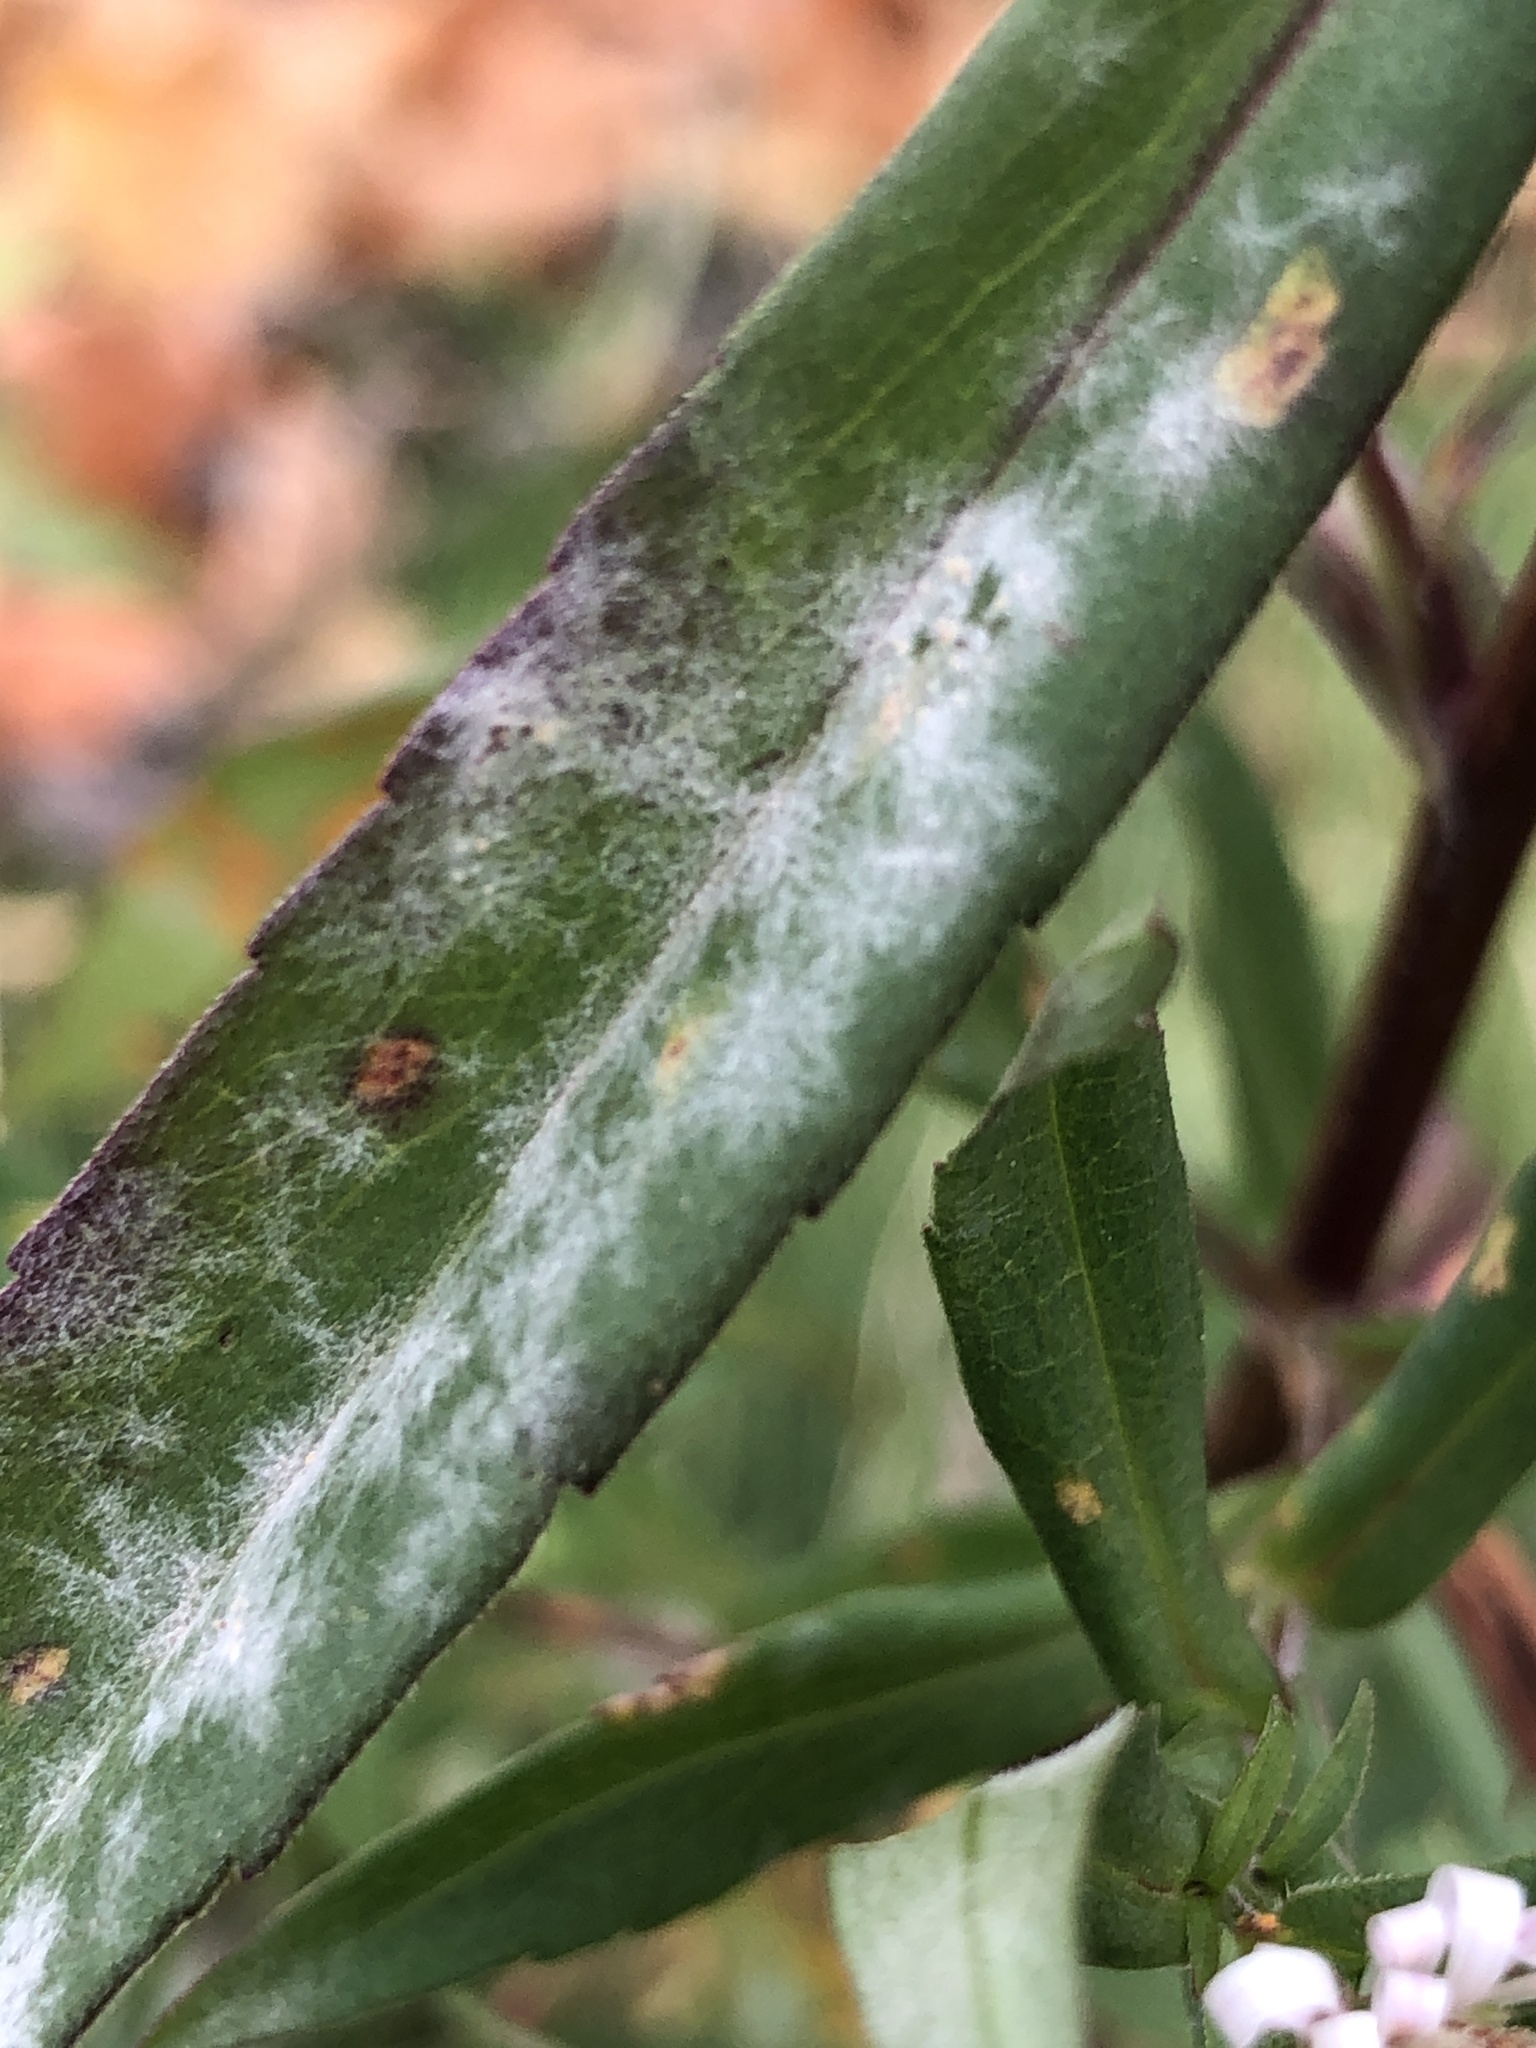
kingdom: Fungi
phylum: Ascomycota
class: Leotiomycetes
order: Helotiales
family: Erysiphaceae
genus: Golovinomyces
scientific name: Golovinomyces asterum
